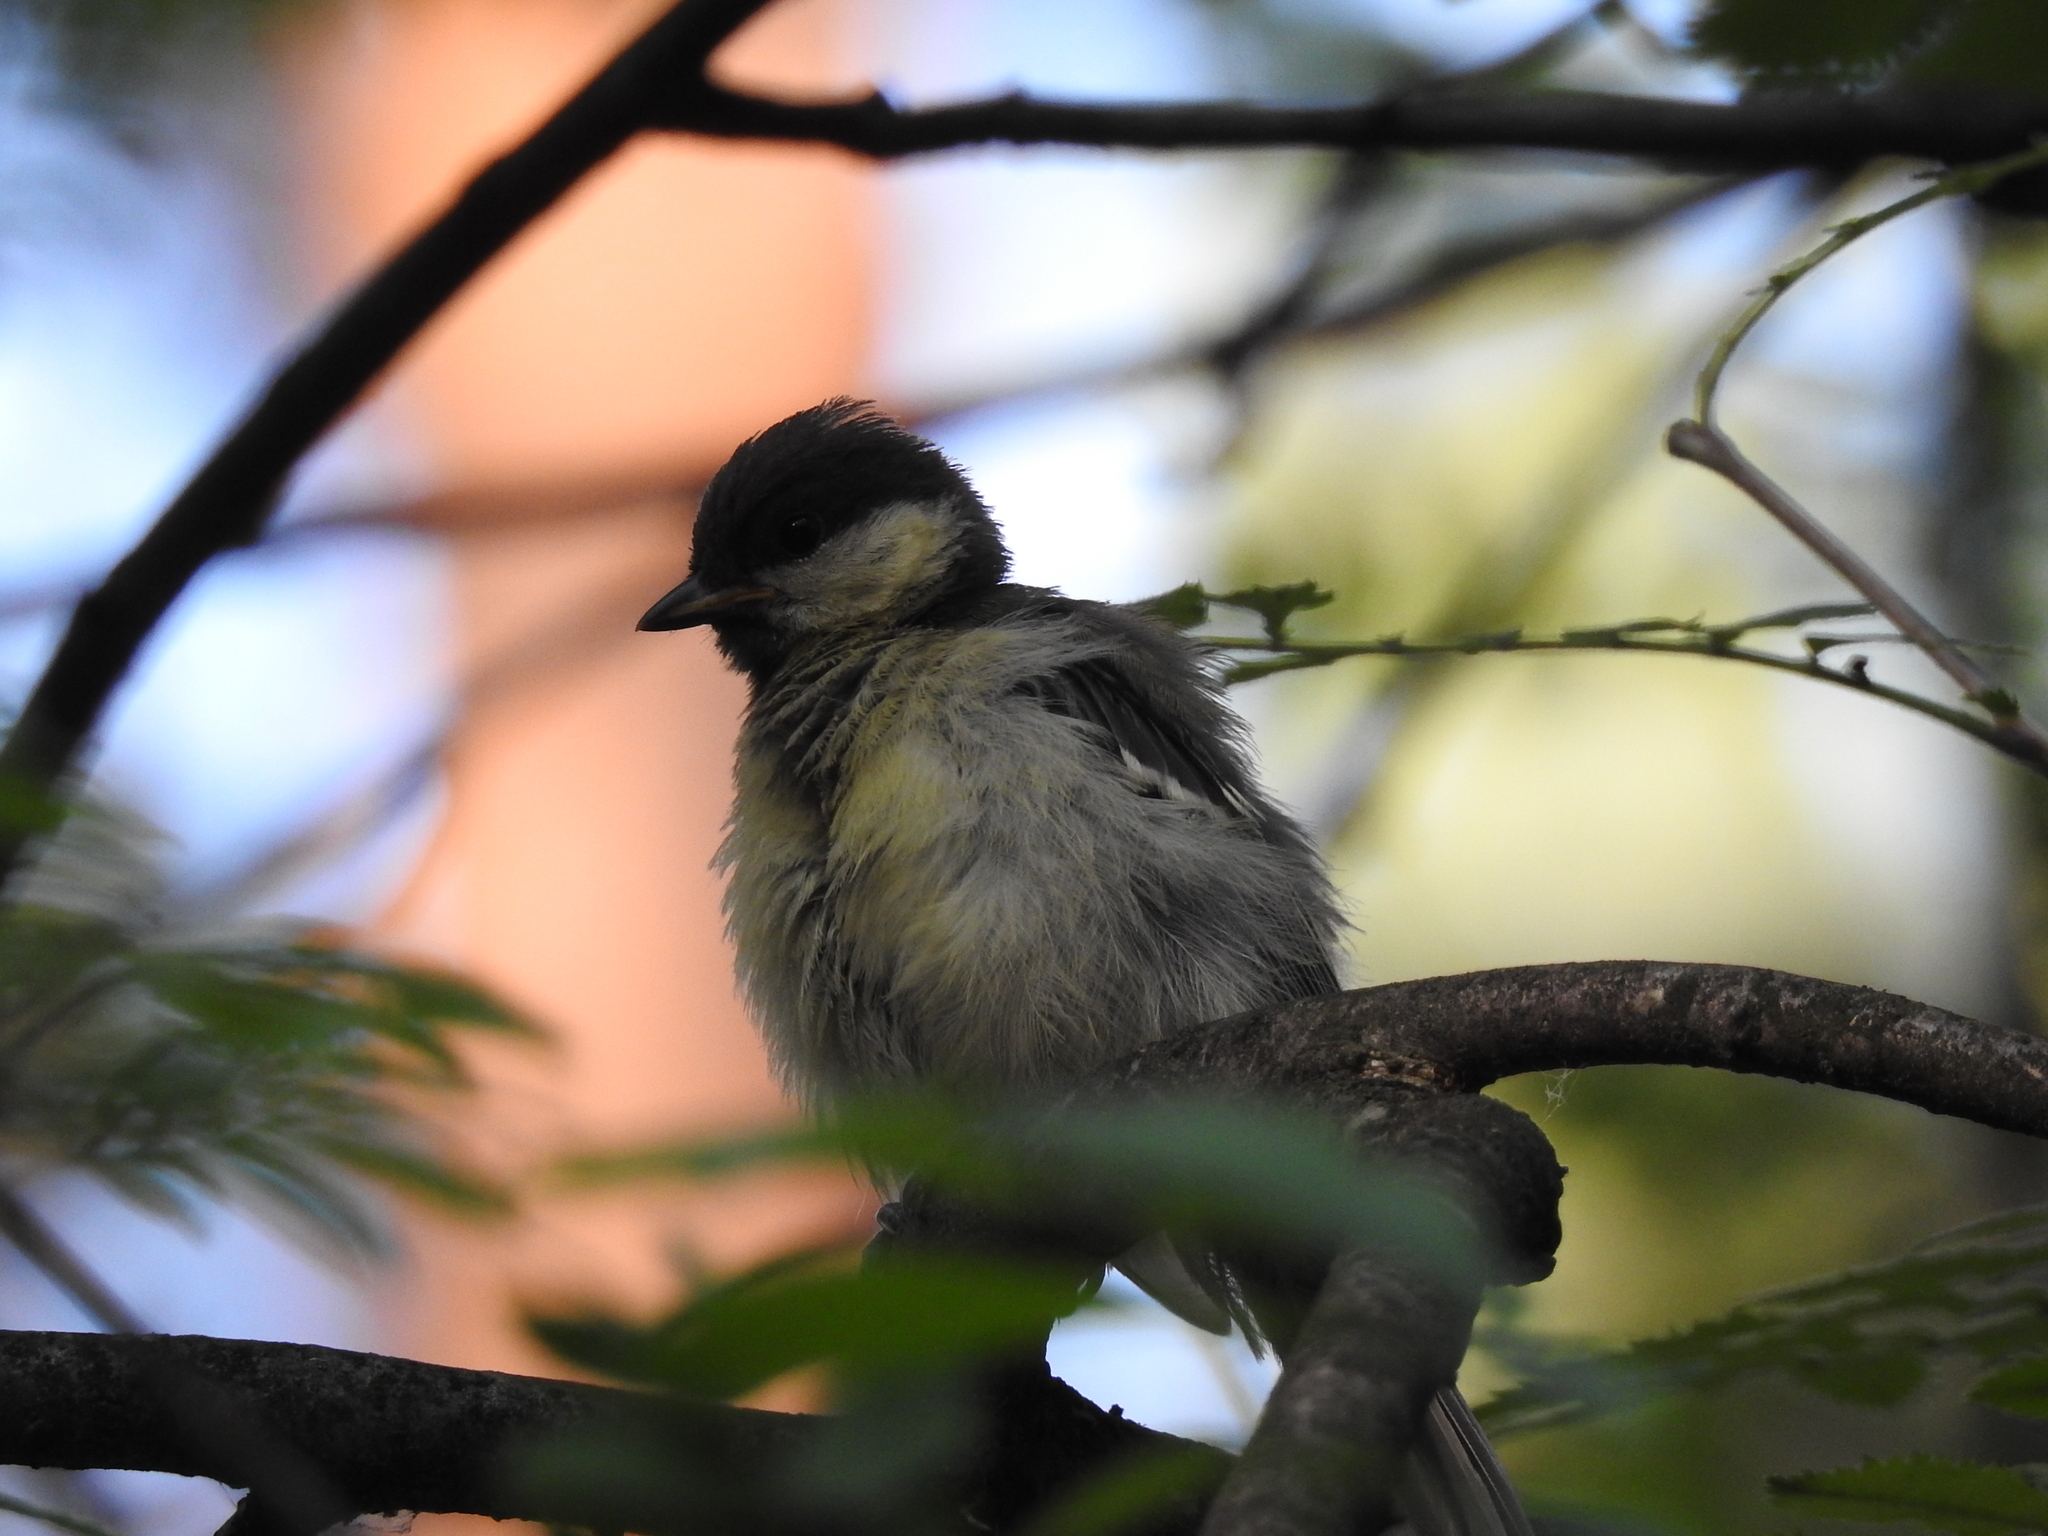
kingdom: Animalia
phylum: Chordata
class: Aves
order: Passeriformes
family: Paridae
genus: Parus
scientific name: Parus major
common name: Great tit
